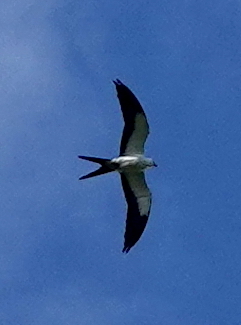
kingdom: Animalia
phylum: Chordata
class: Aves
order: Accipitriformes
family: Accipitridae
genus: Elanoides
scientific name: Elanoides forficatus
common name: Swallow-tailed kite
